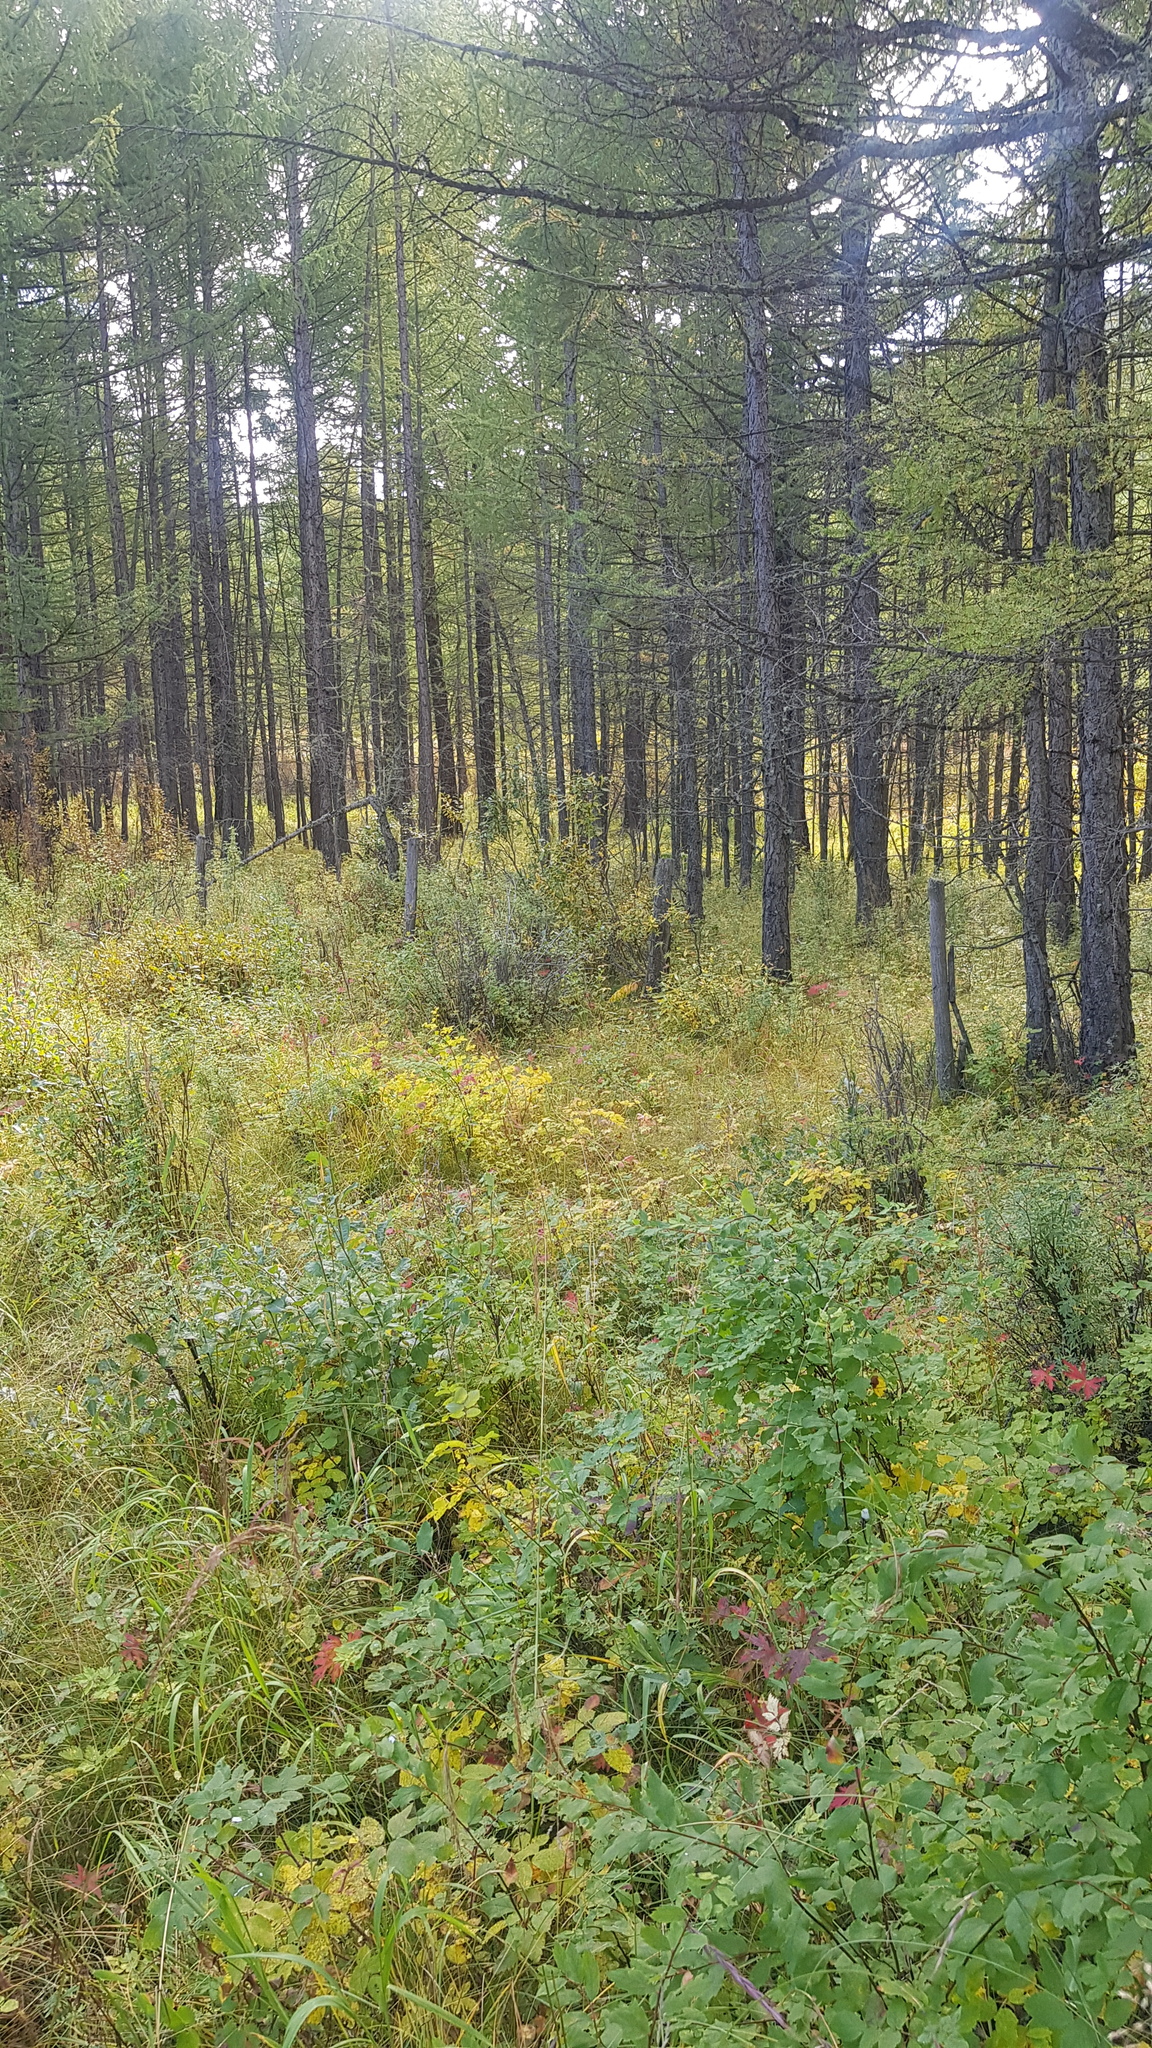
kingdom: Plantae
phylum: Tracheophyta
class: Pinopsida
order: Pinales
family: Pinaceae
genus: Larix
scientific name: Larix sibirica
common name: Siberian larch
